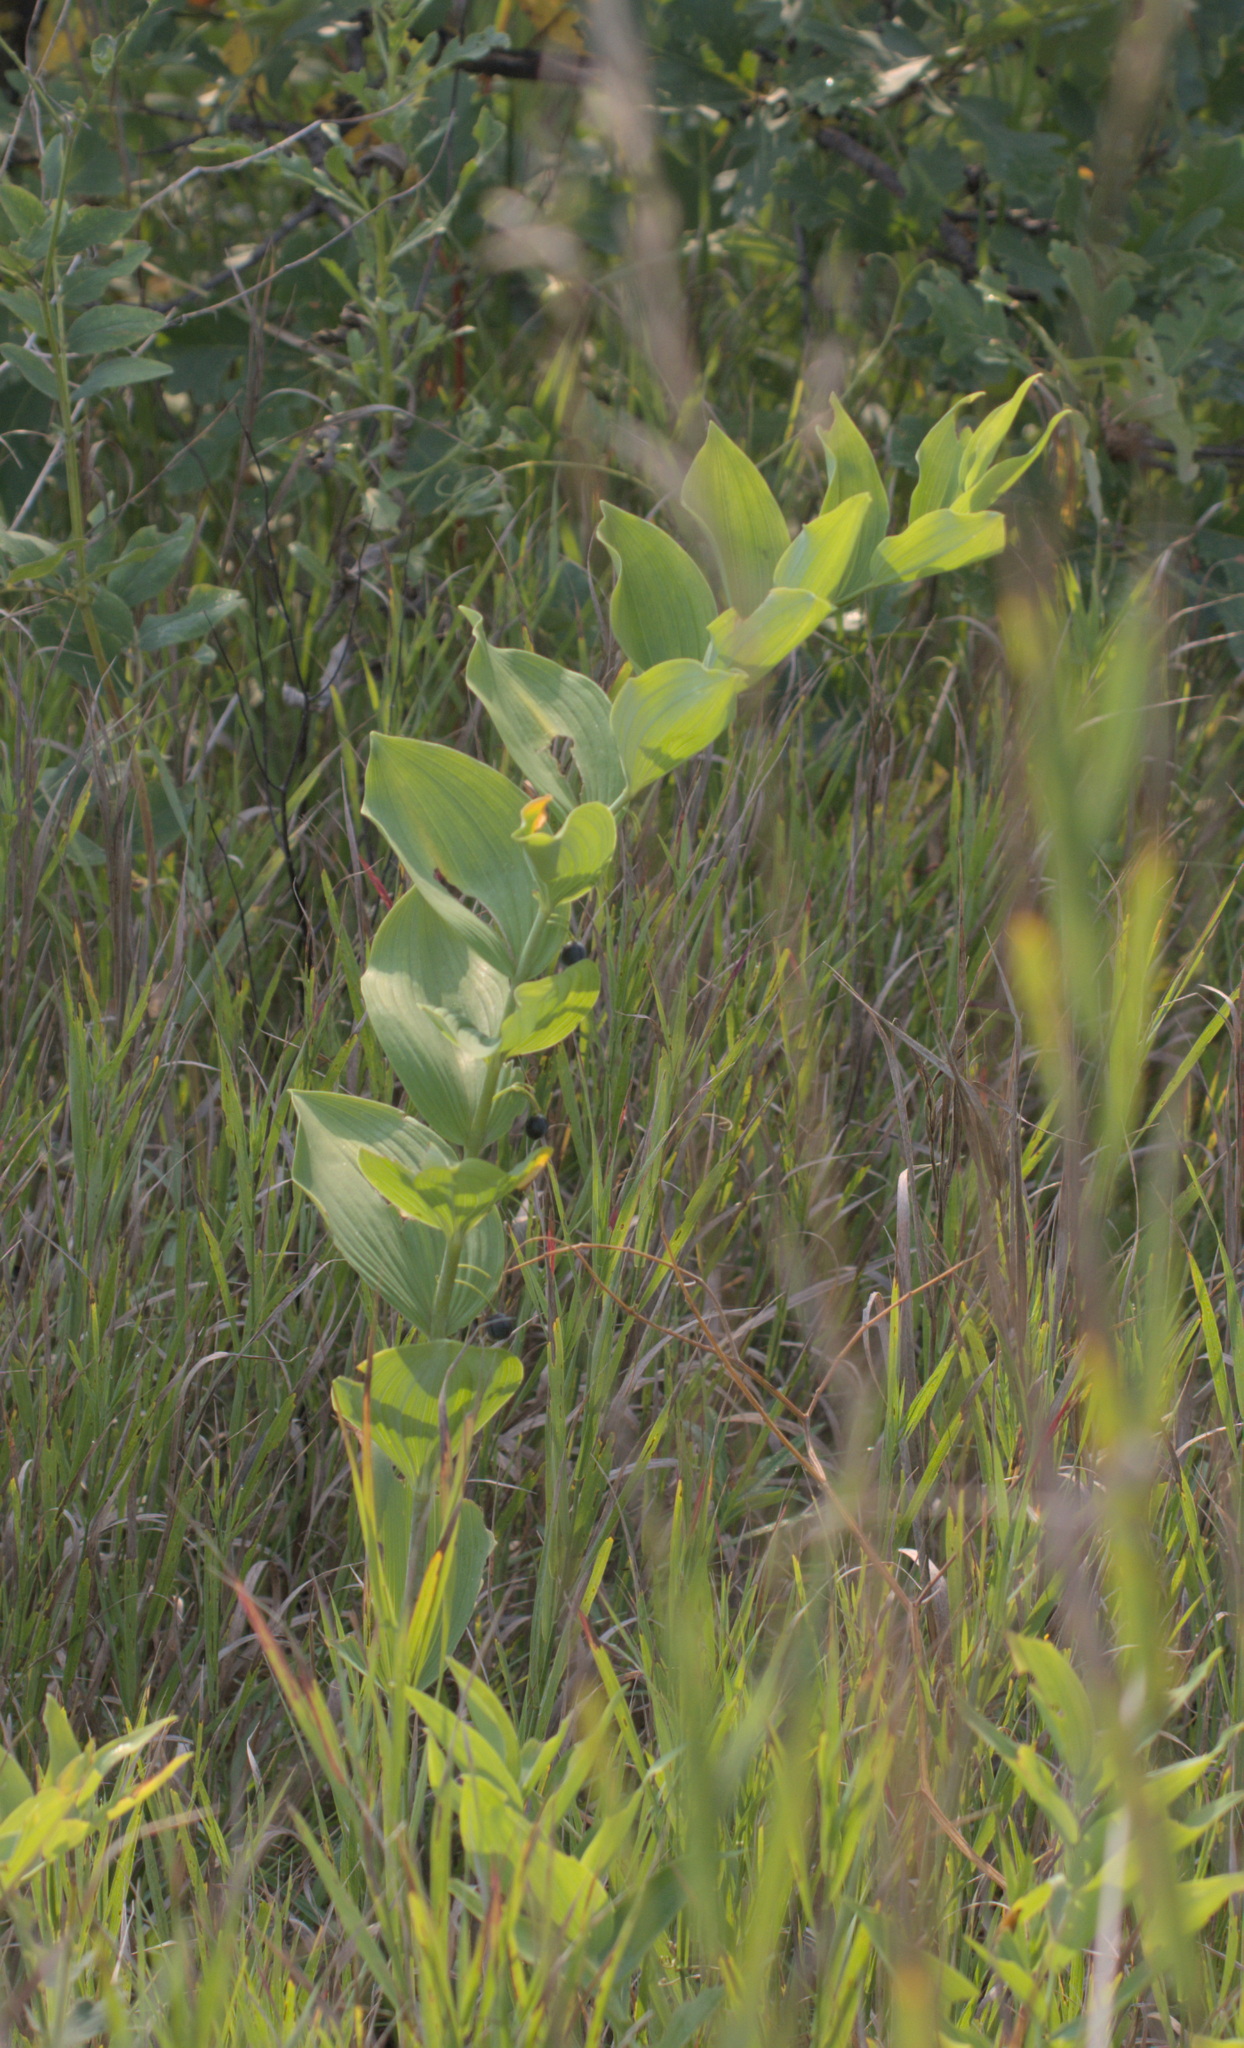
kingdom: Plantae
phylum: Tracheophyta
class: Liliopsida
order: Asparagales
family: Asparagaceae
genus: Polygonatum
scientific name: Polygonatum biflorum
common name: American solomon's-seal
